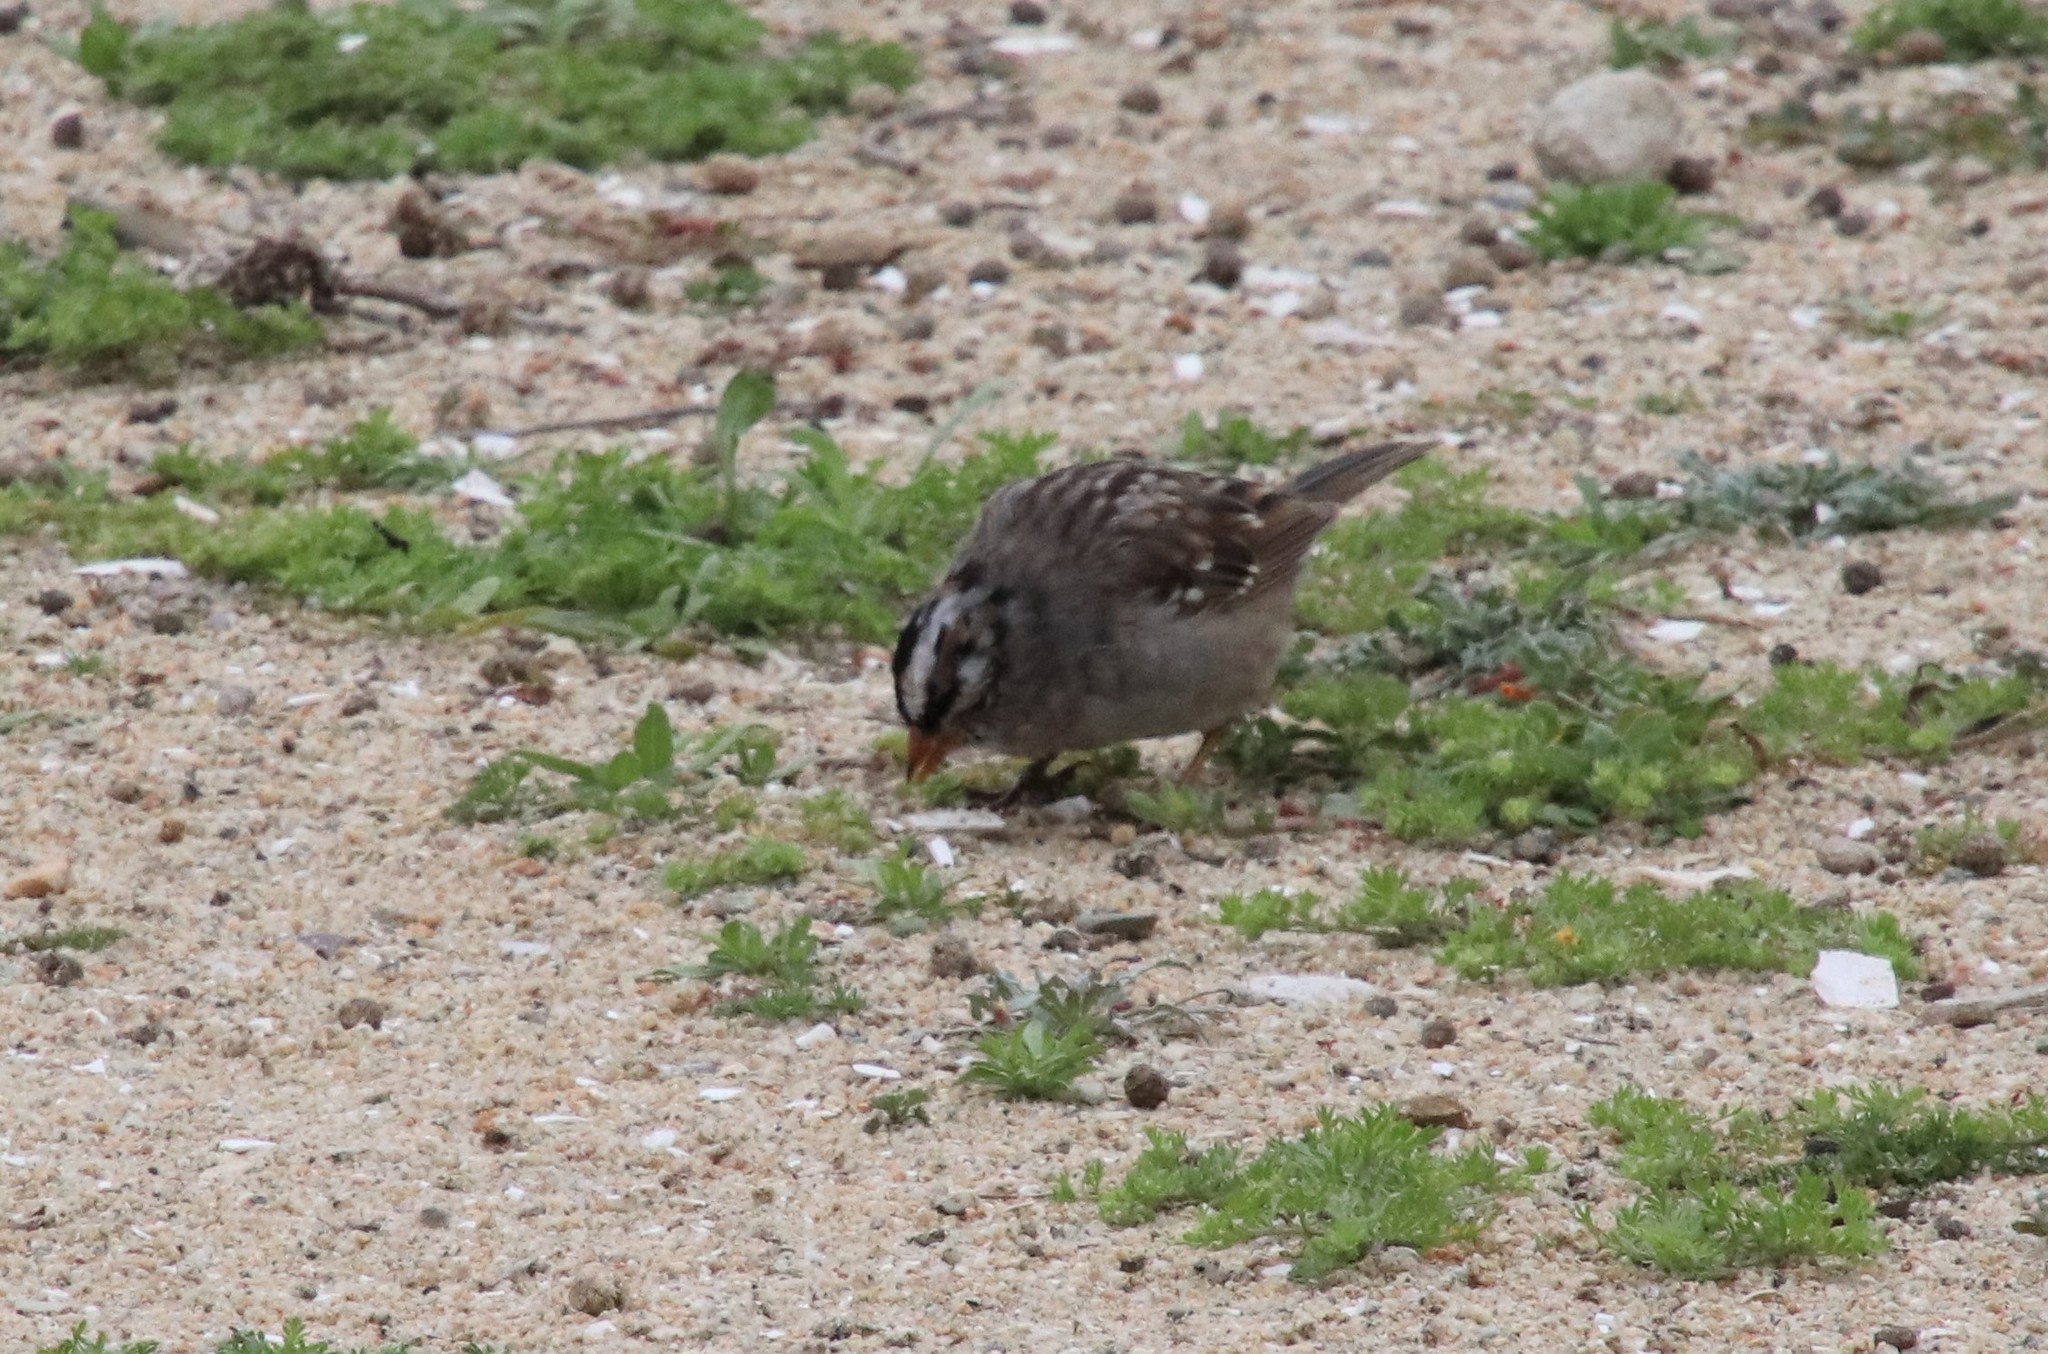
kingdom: Animalia
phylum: Chordata
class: Aves
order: Passeriformes
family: Passerellidae
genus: Zonotrichia
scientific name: Zonotrichia leucophrys
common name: White-crowned sparrow
